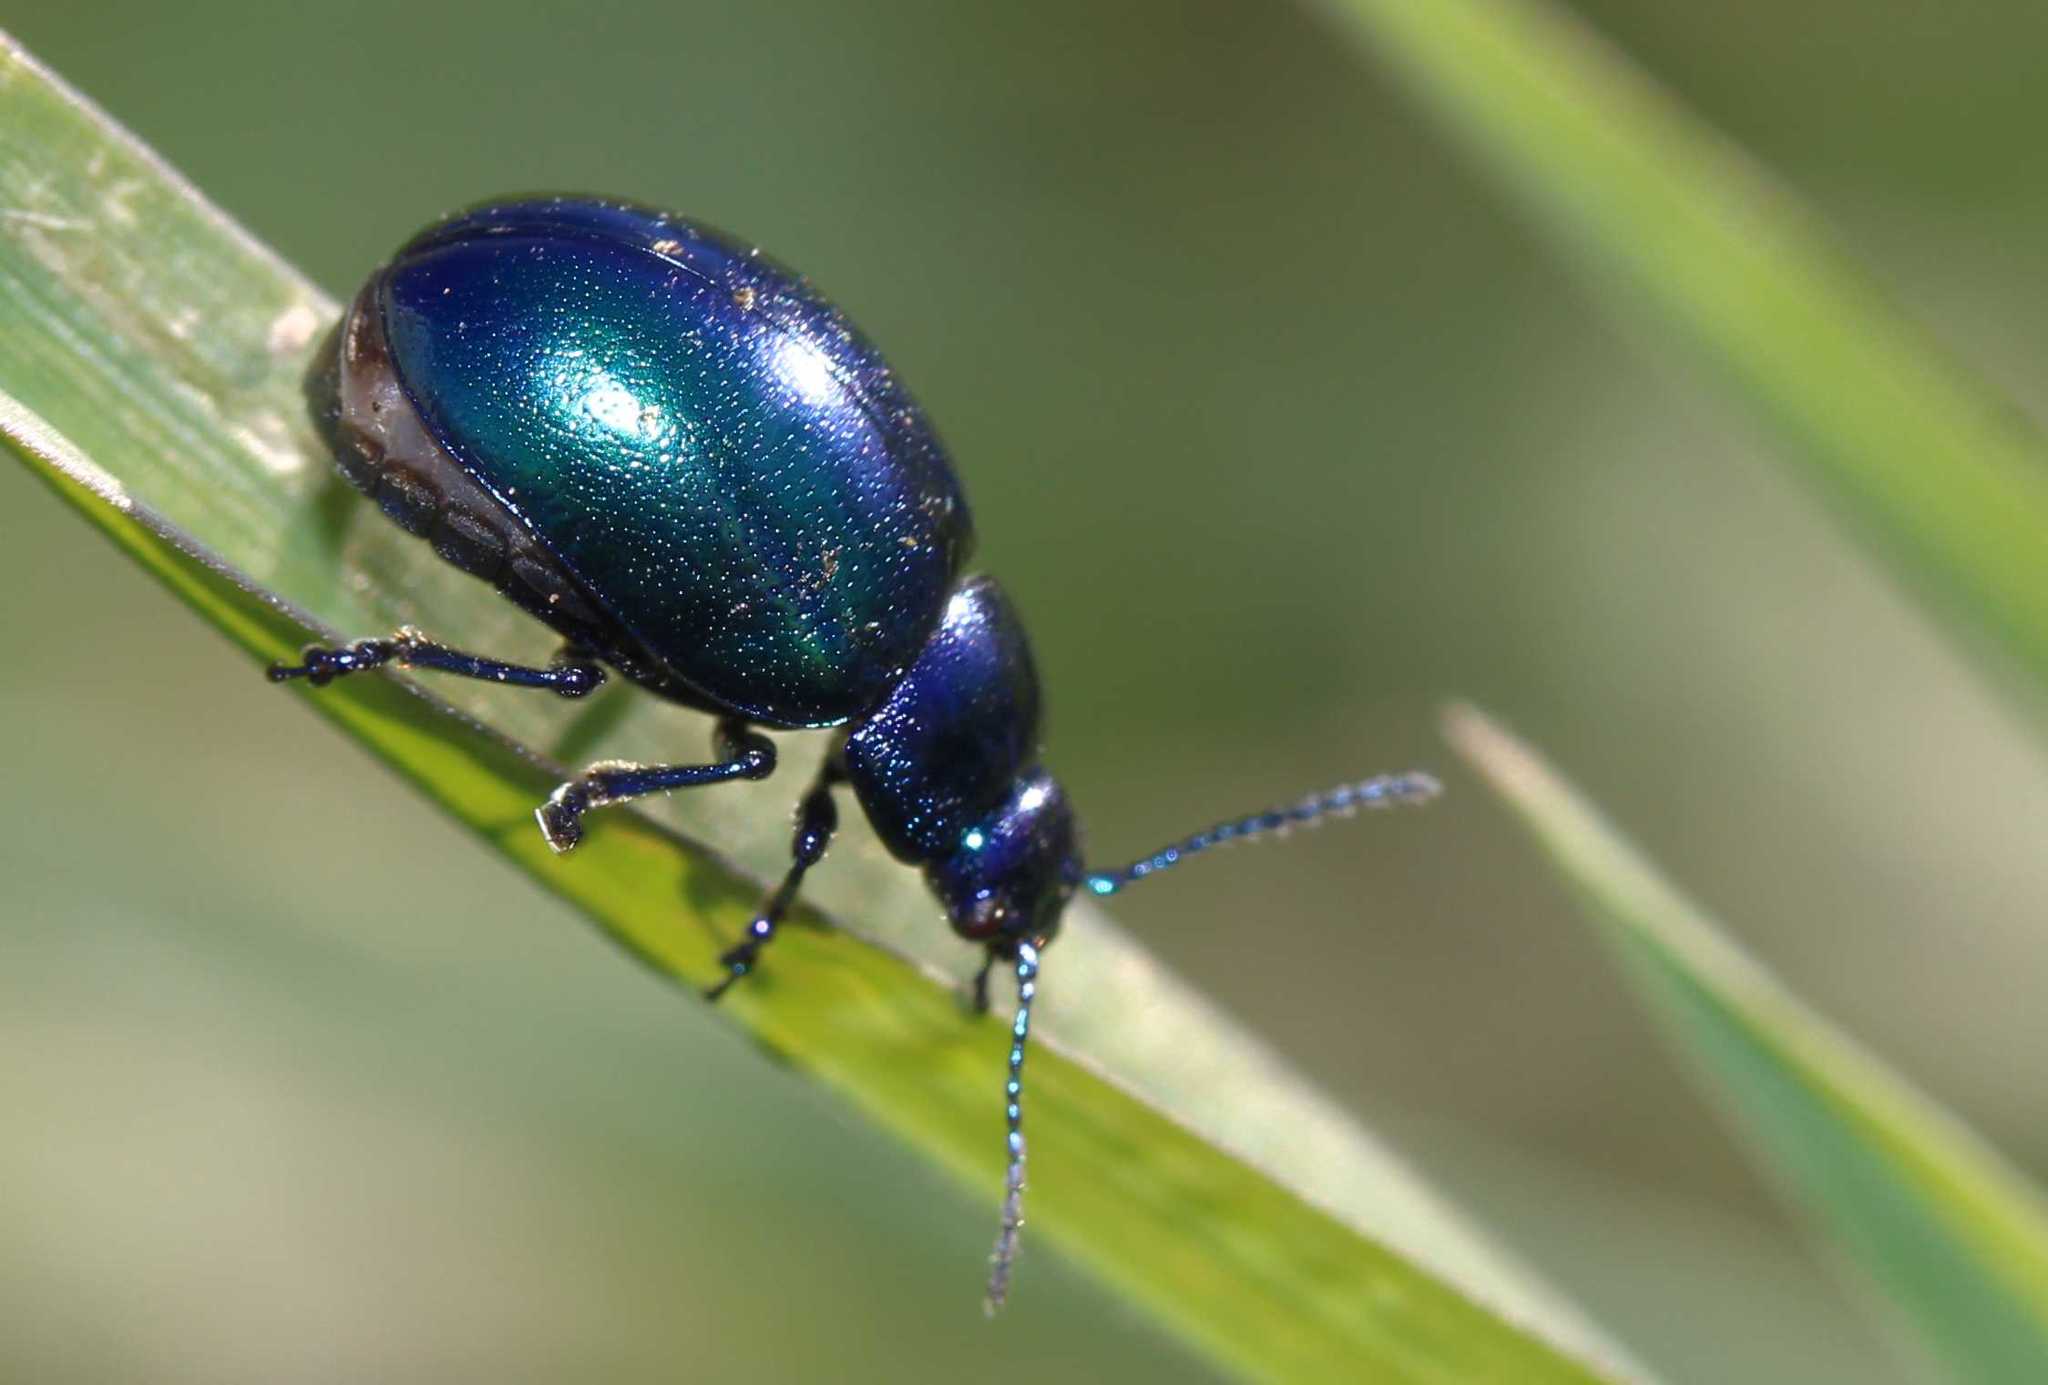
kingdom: Animalia
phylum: Arthropoda
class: Insecta
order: Coleoptera
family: Chrysomelidae
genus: Chrysolina
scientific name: Chrysolina coerulans
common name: Blue mint beetle
